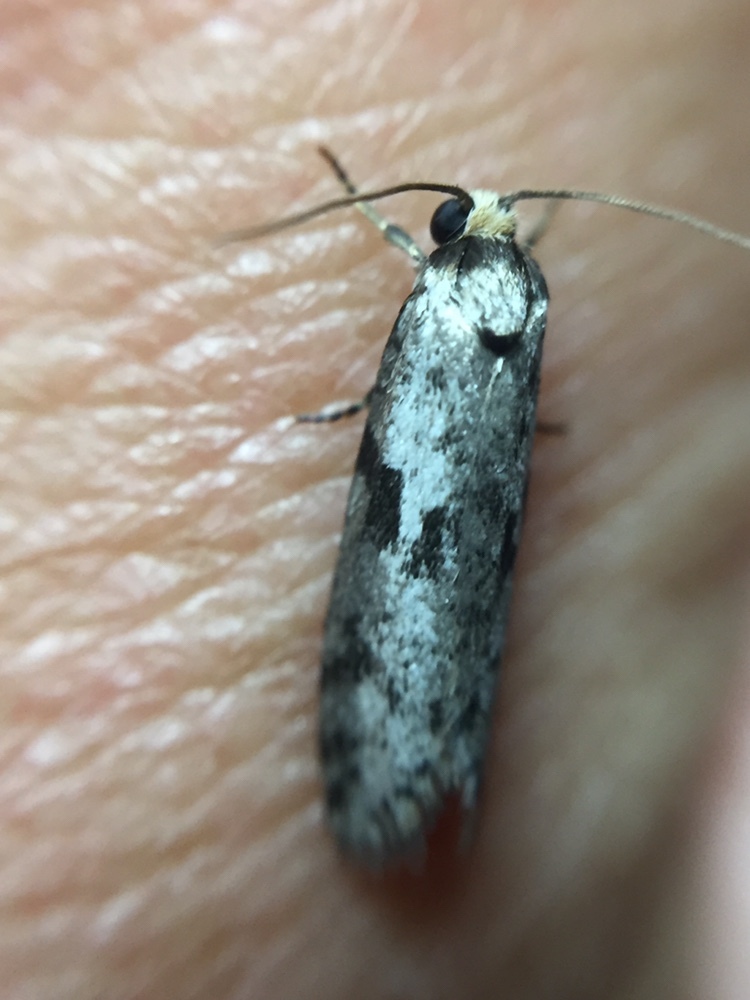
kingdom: Animalia
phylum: Arthropoda
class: Insecta
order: Lepidoptera
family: Psychidae
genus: Lepidoscia
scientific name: Lepidoscia protorna
